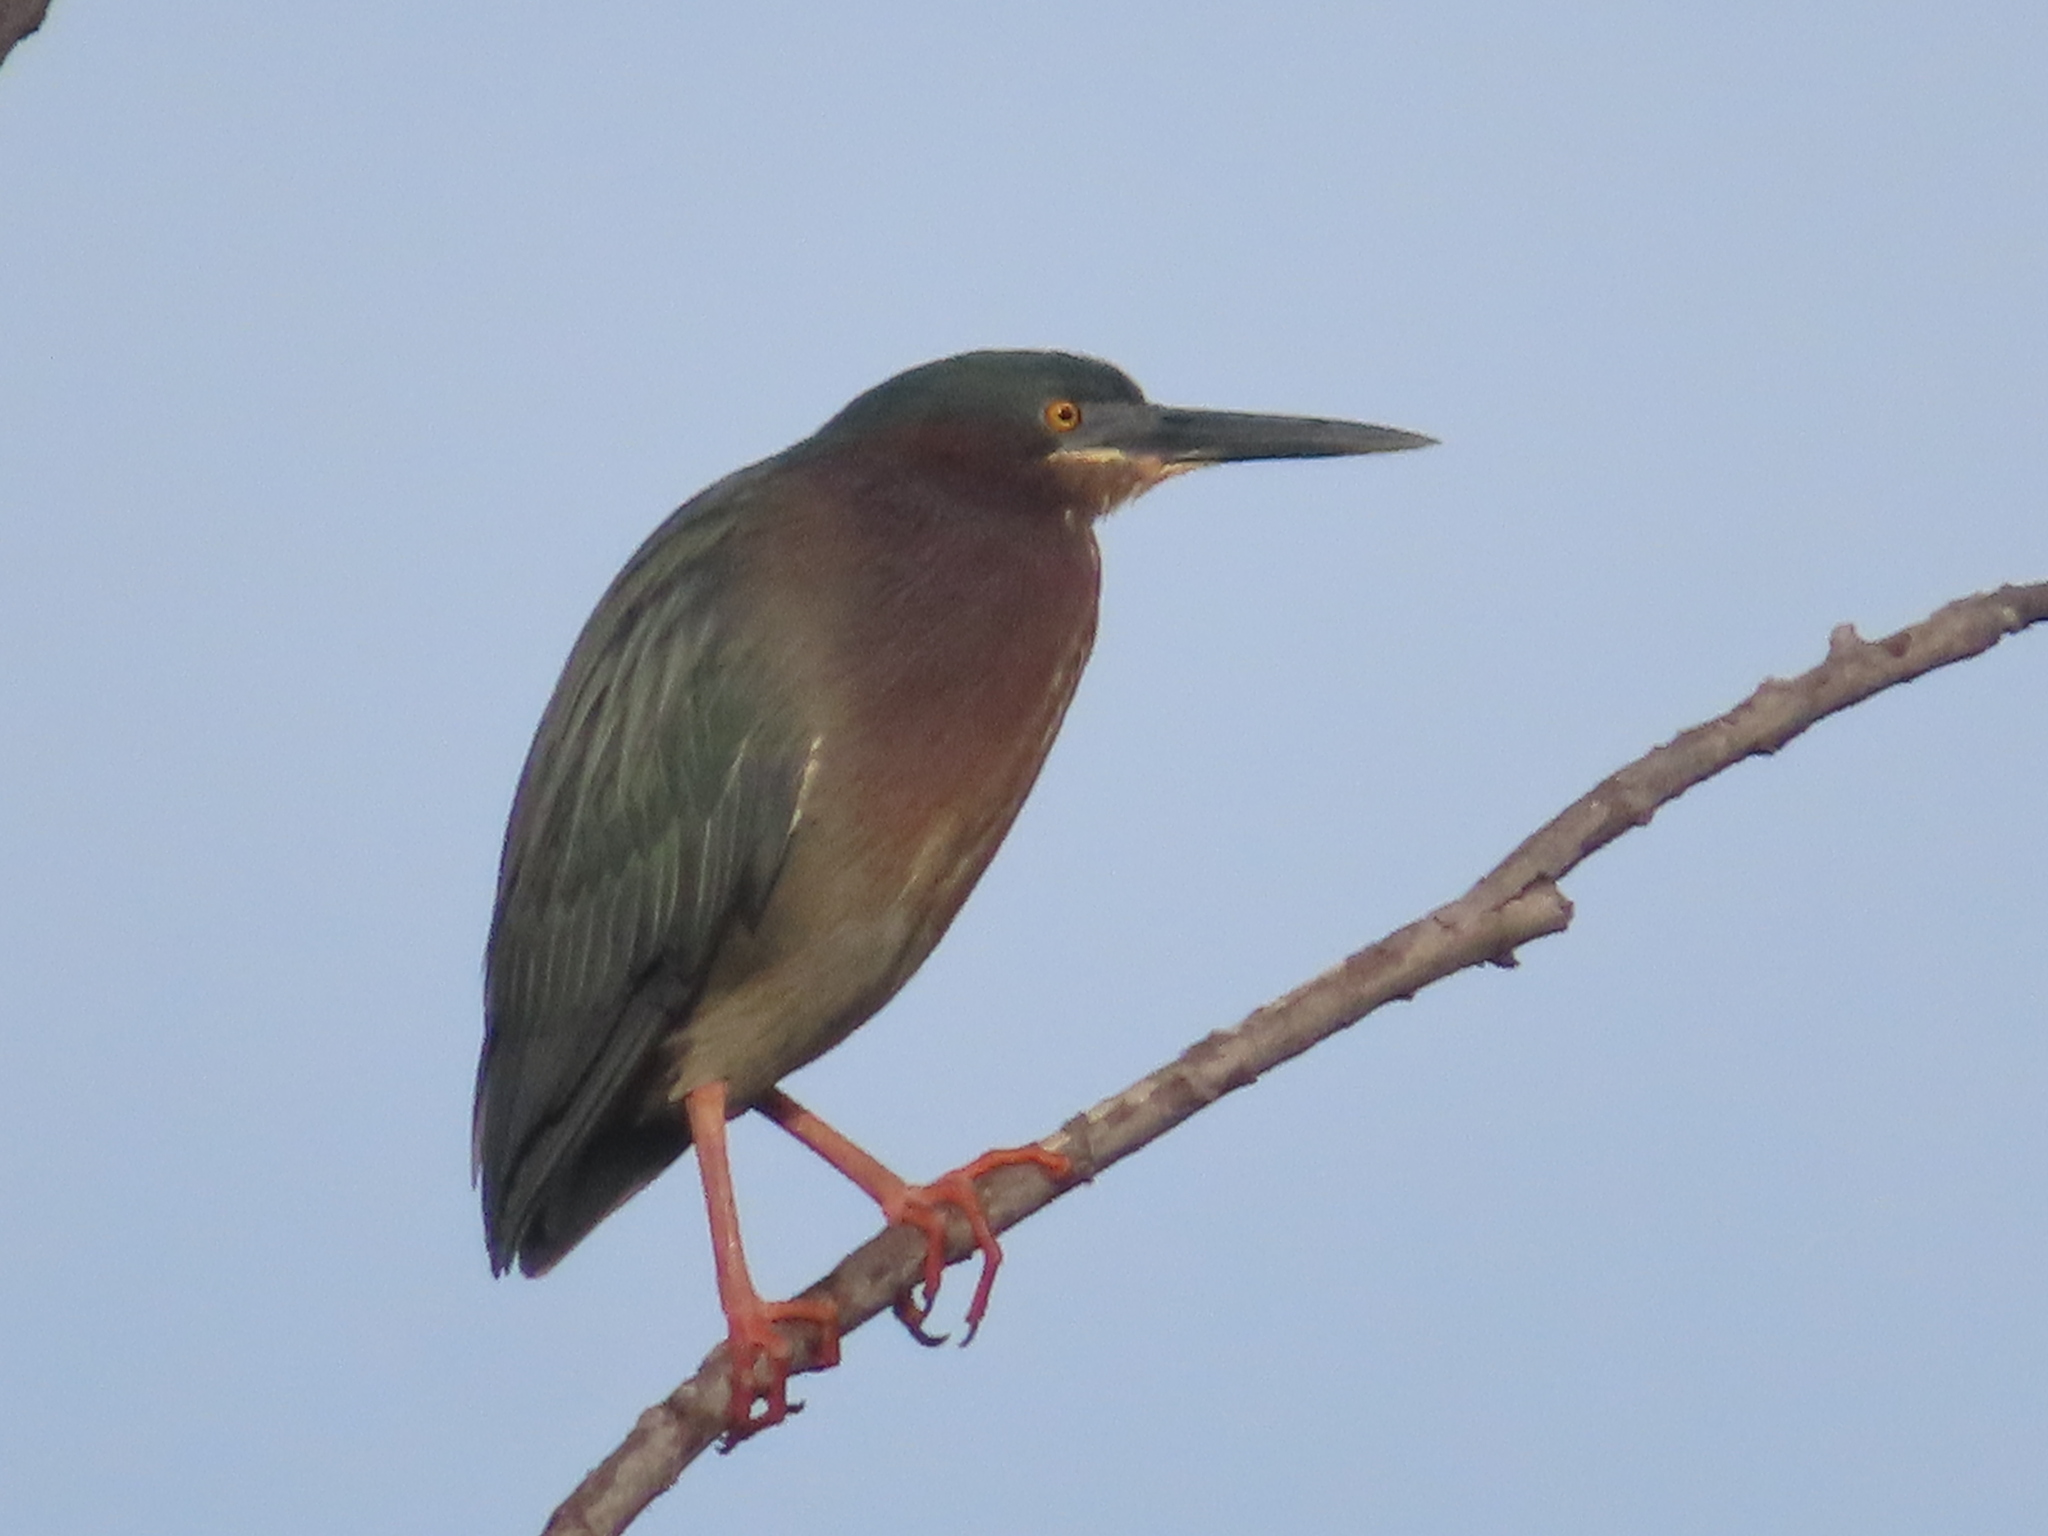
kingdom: Animalia
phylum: Chordata
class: Aves
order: Pelecaniformes
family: Ardeidae
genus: Butorides
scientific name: Butorides virescens
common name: Green heron
